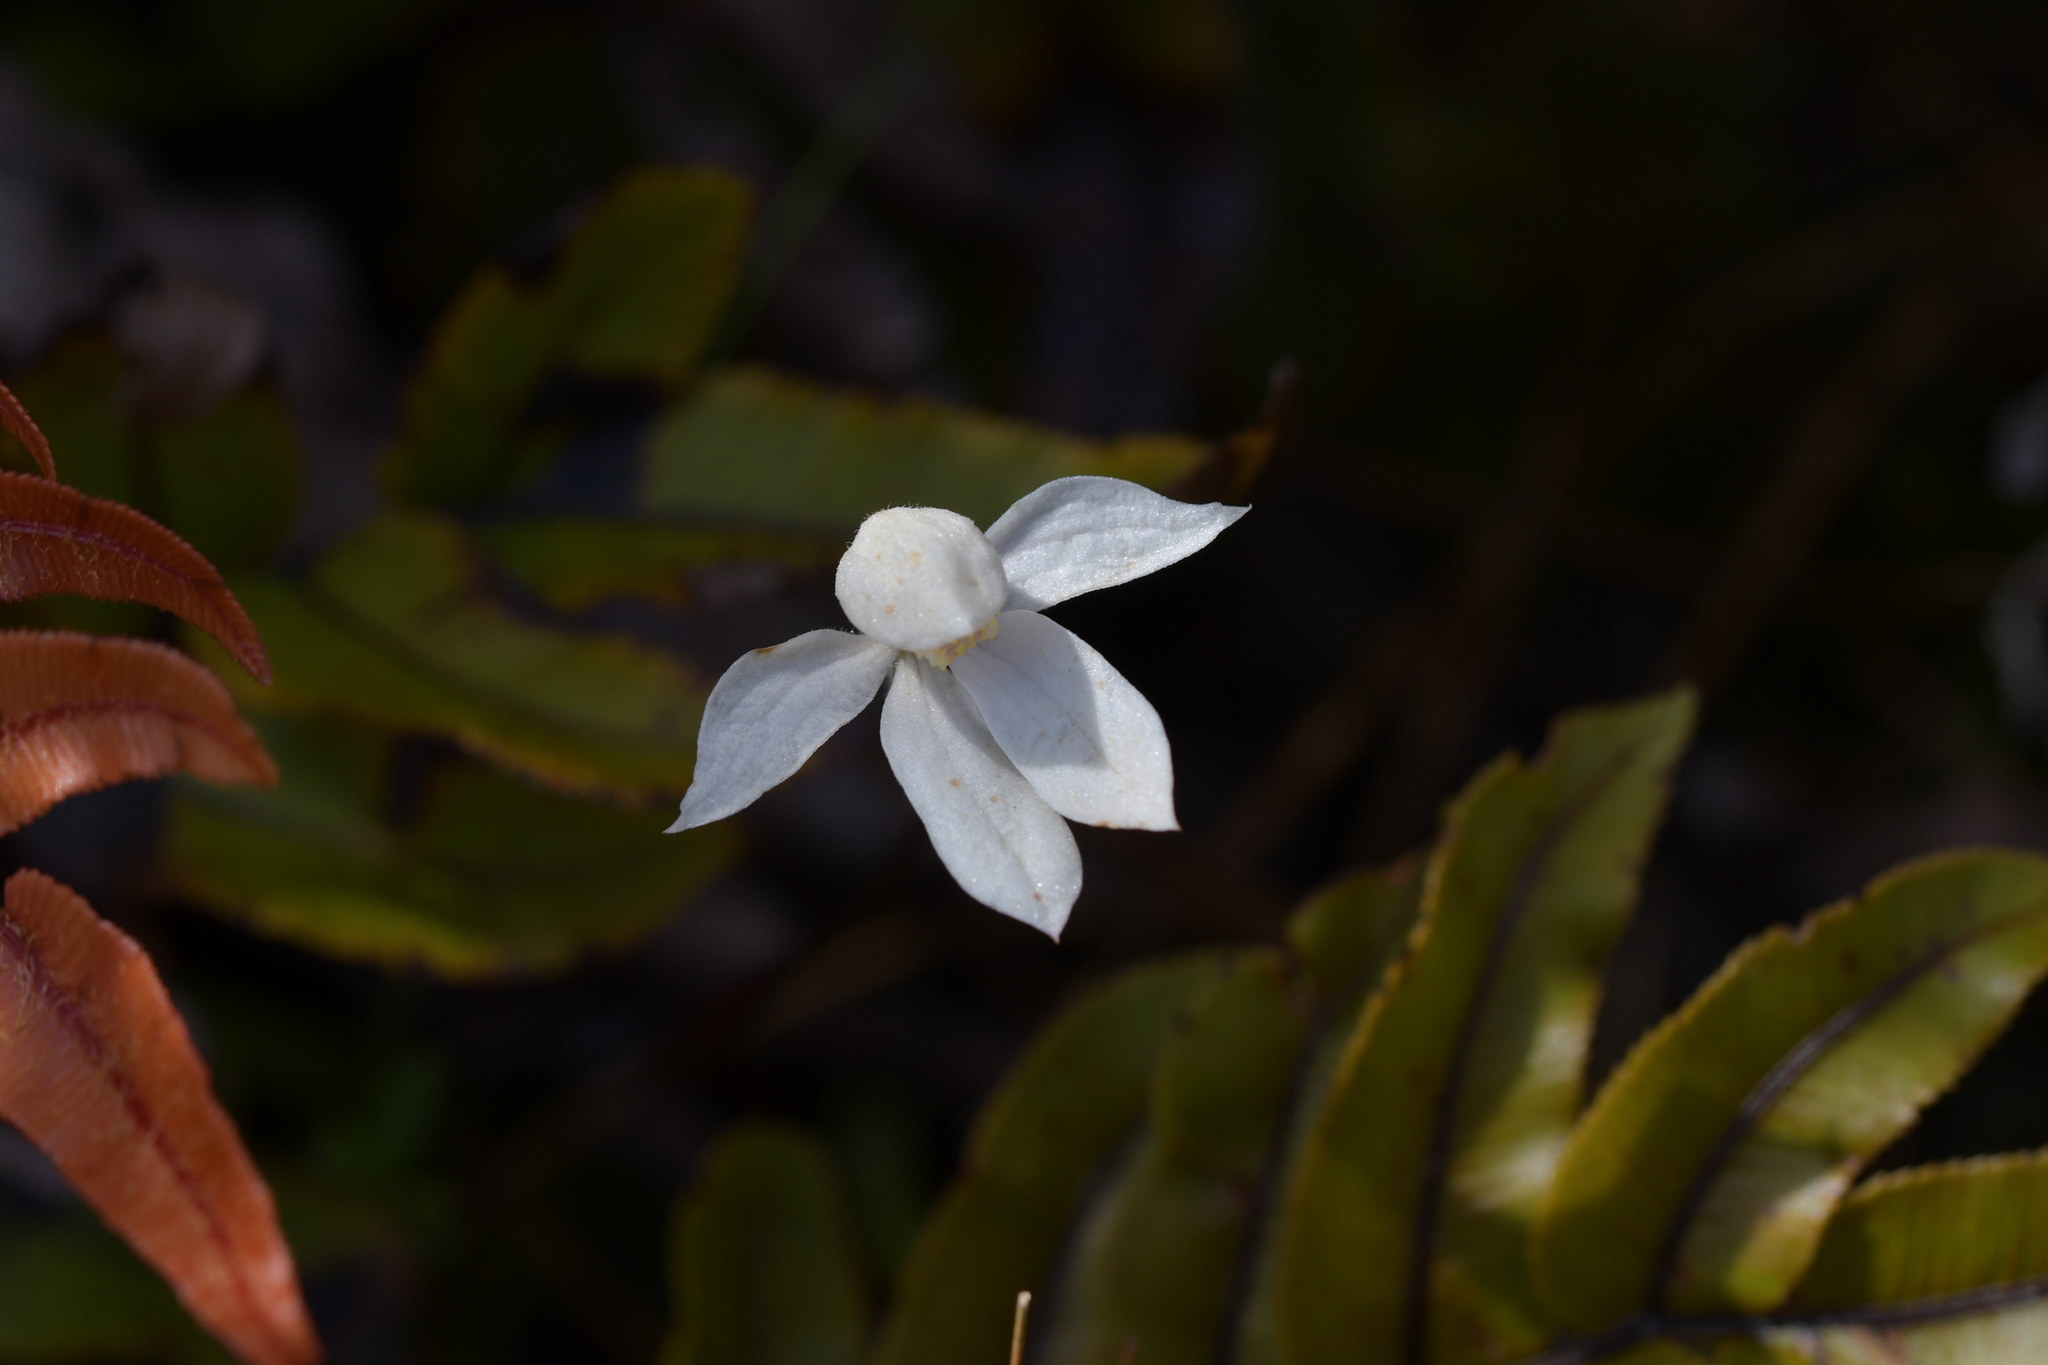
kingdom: Plantae
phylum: Tracheophyta
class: Liliopsida
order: Asparagales
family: Orchidaceae
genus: Caladenia
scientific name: Caladenia lyallii
